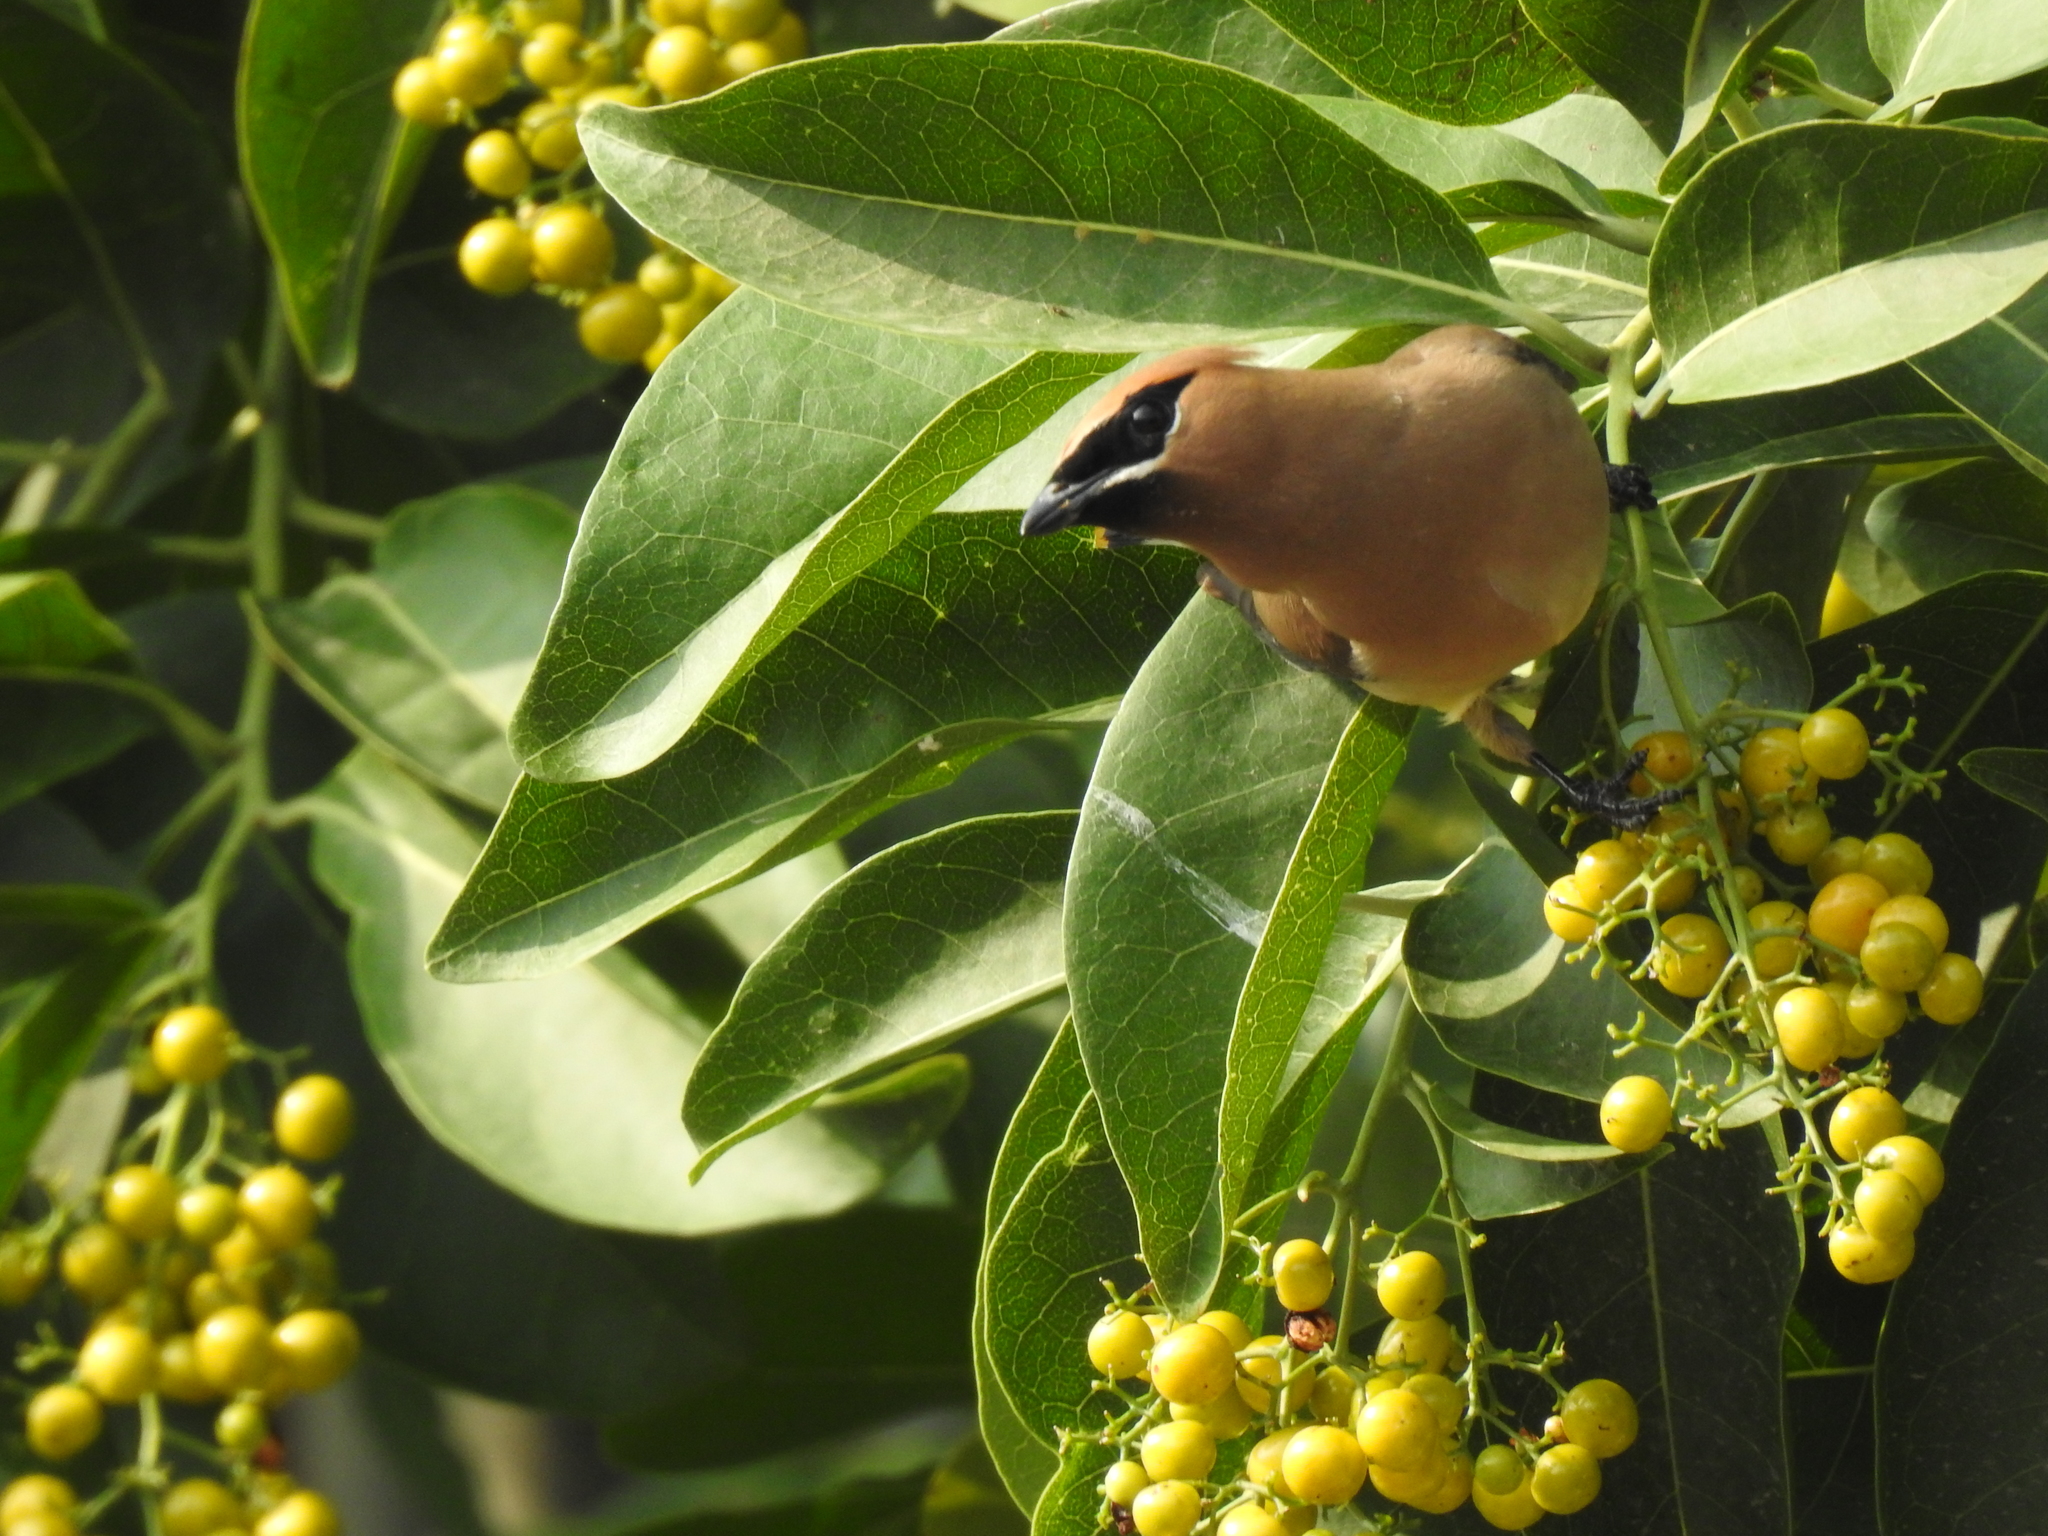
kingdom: Animalia
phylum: Chordata
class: Aves
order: Passeriformes
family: Bombycillidae
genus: Bombycilla
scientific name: Bombycilla cedrorum
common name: Cedar waxwing
